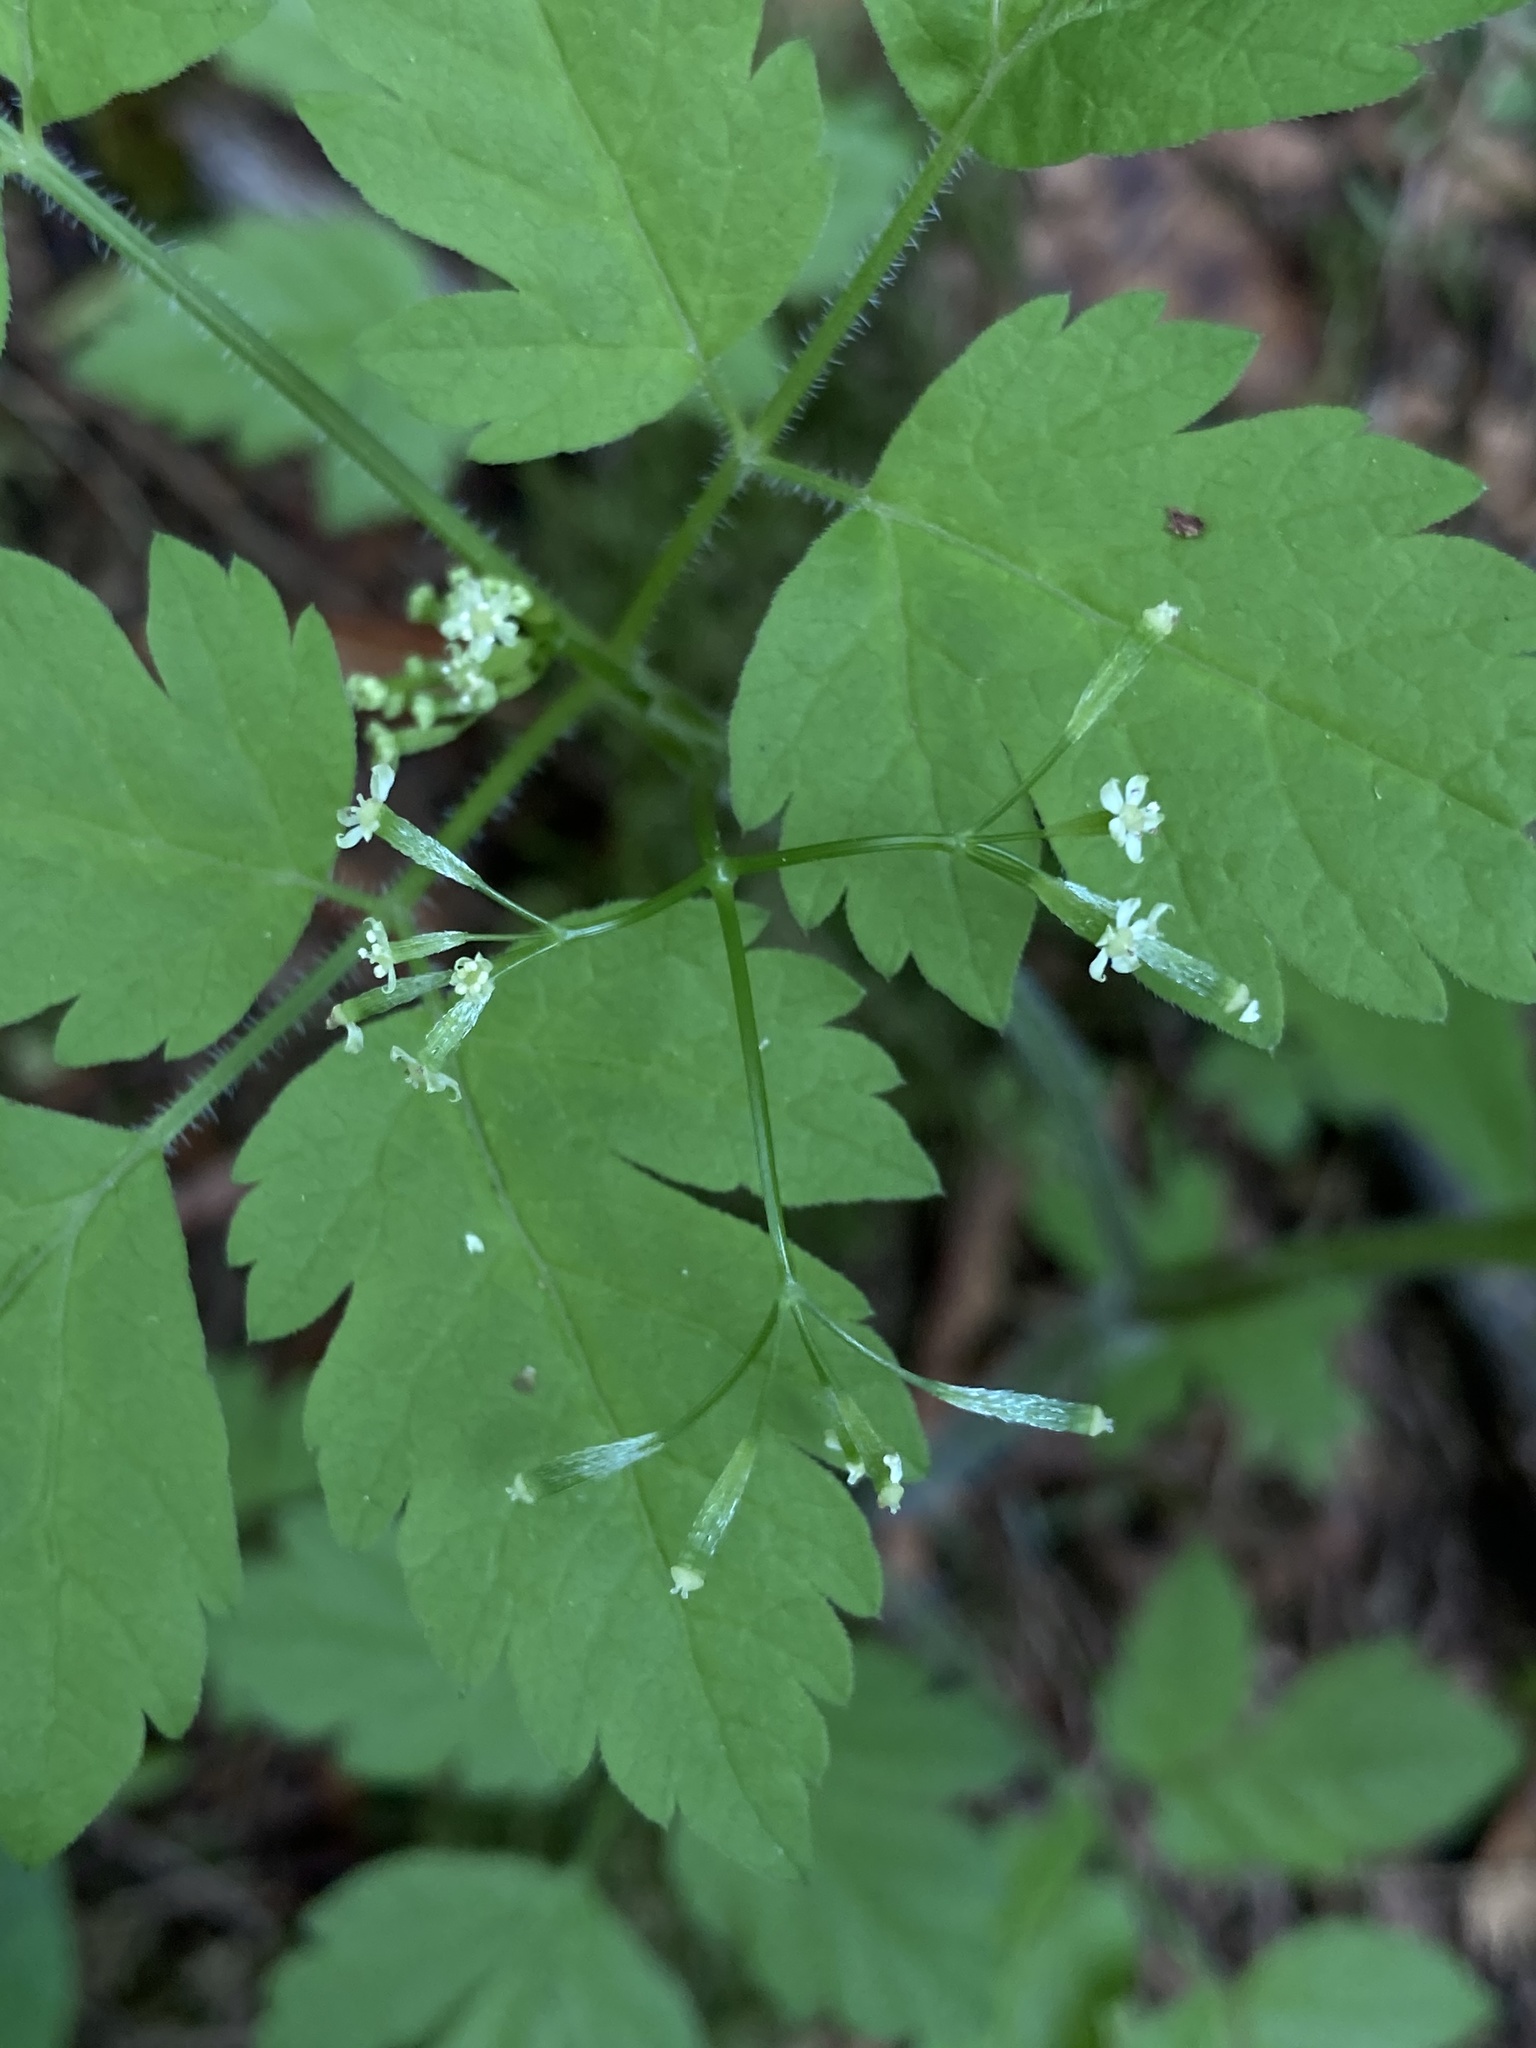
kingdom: Plantae
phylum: Tracheophyta
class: Magnoliopsida
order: Apiales
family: Apiaceae
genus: Osmorhiza
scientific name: Osmorhiza berteroi
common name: Mountain sweet cicely
